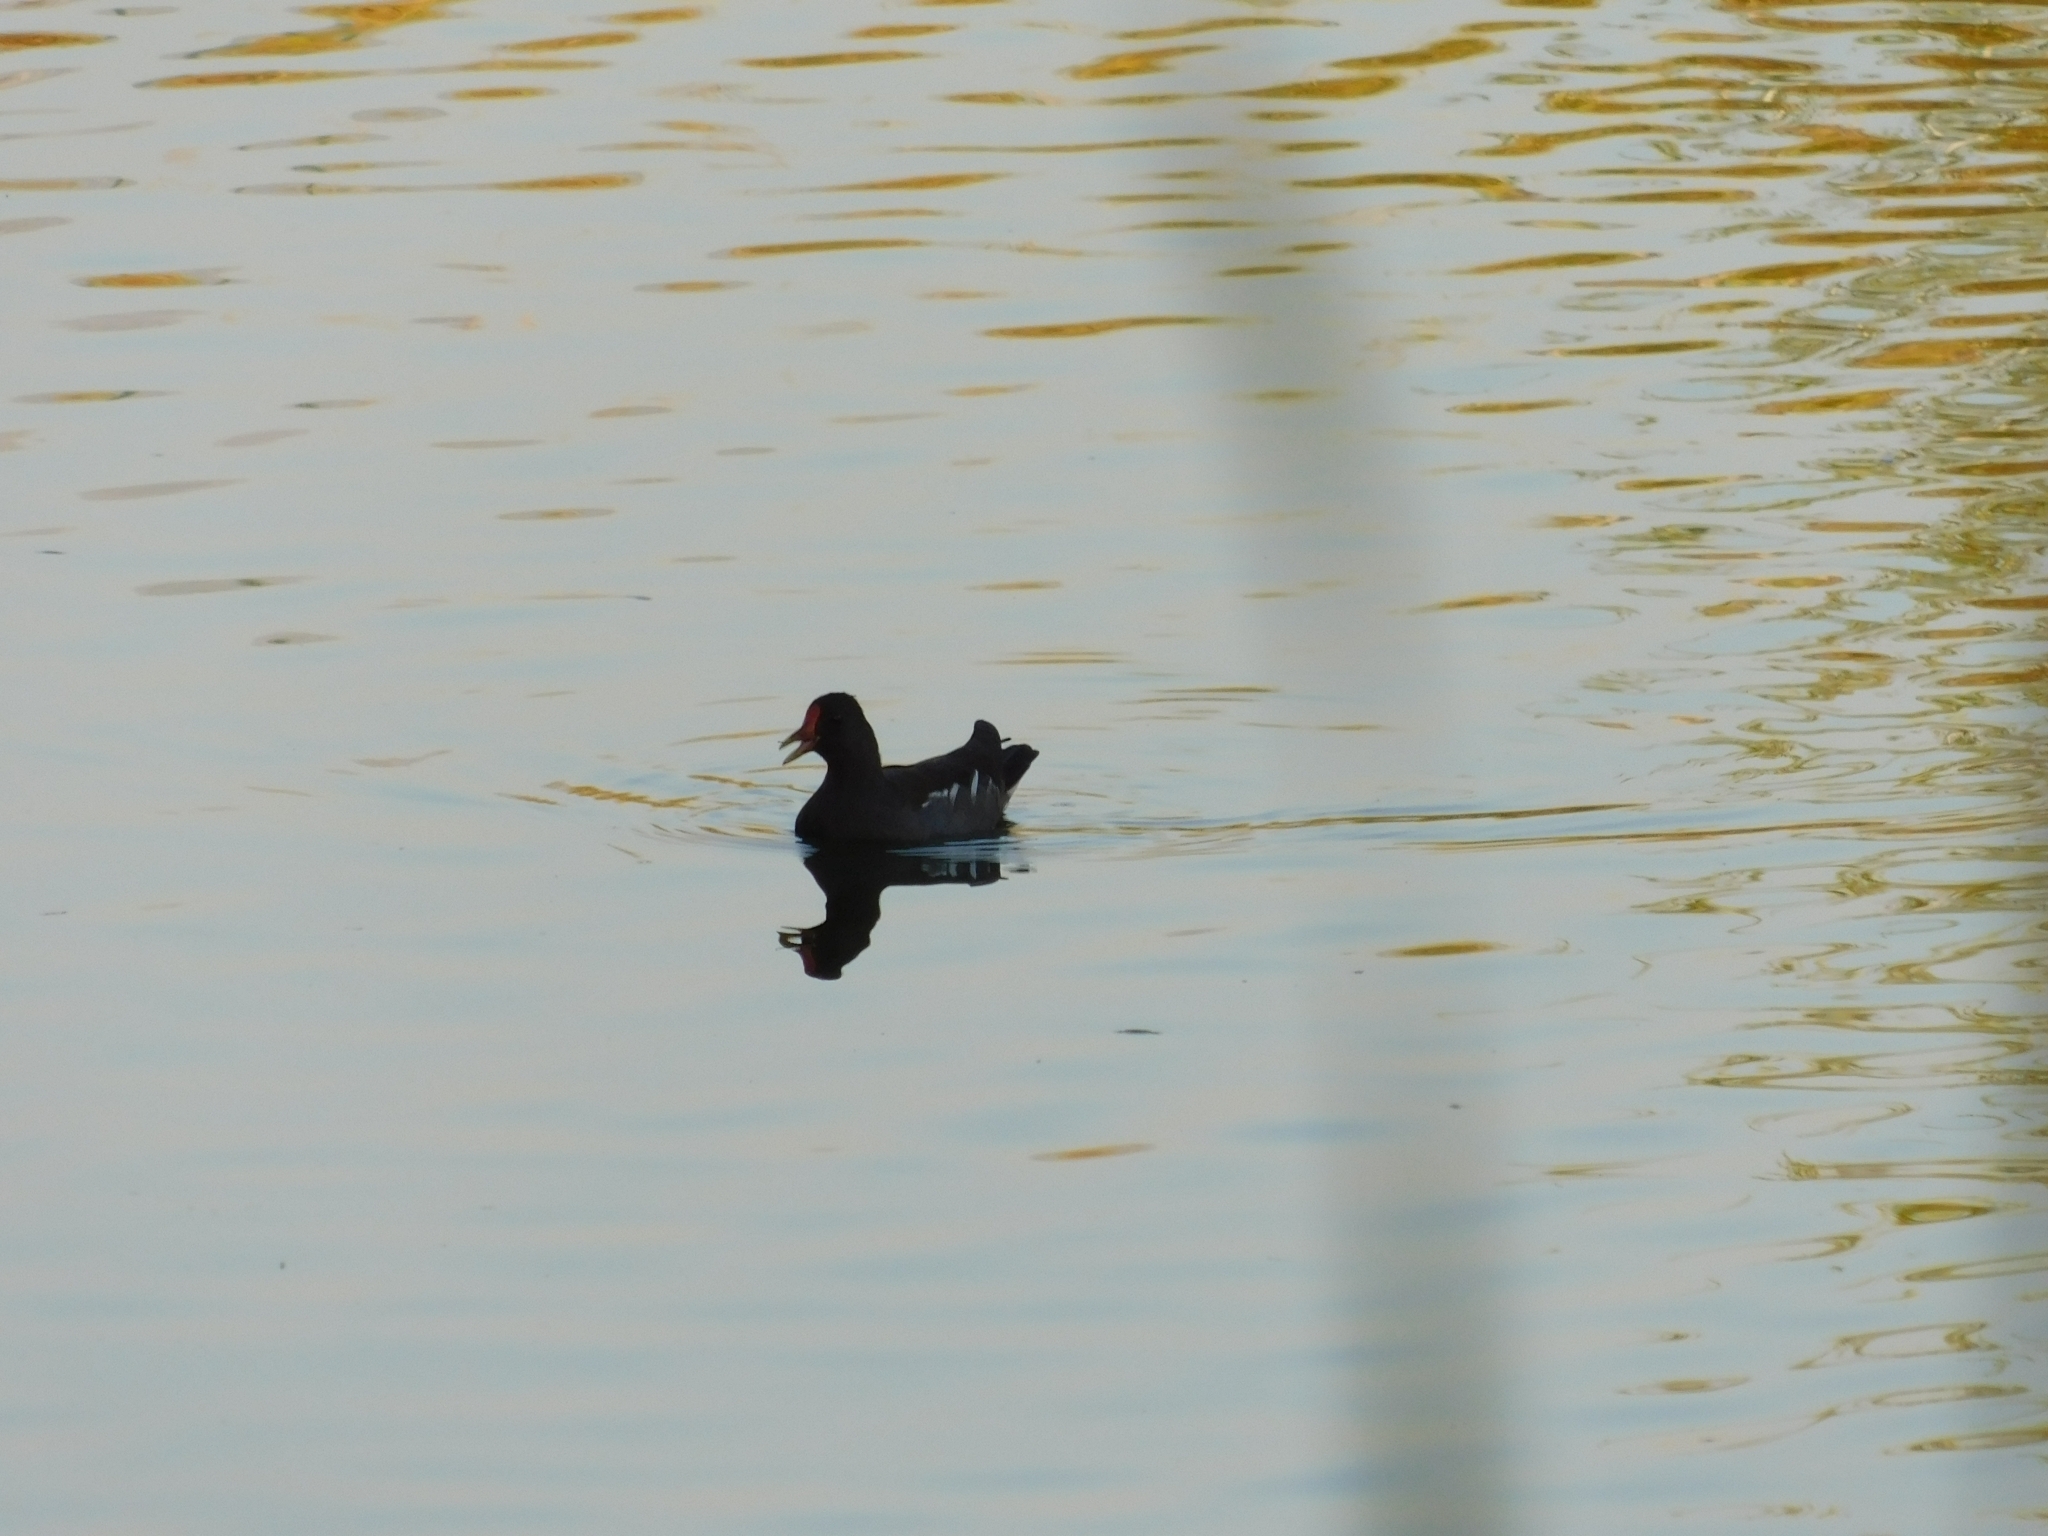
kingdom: Animalia
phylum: Chordata
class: Aves
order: Gruiformes
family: Rallidae
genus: Gallinula
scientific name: Gallinula chloropus
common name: Common moorhen
